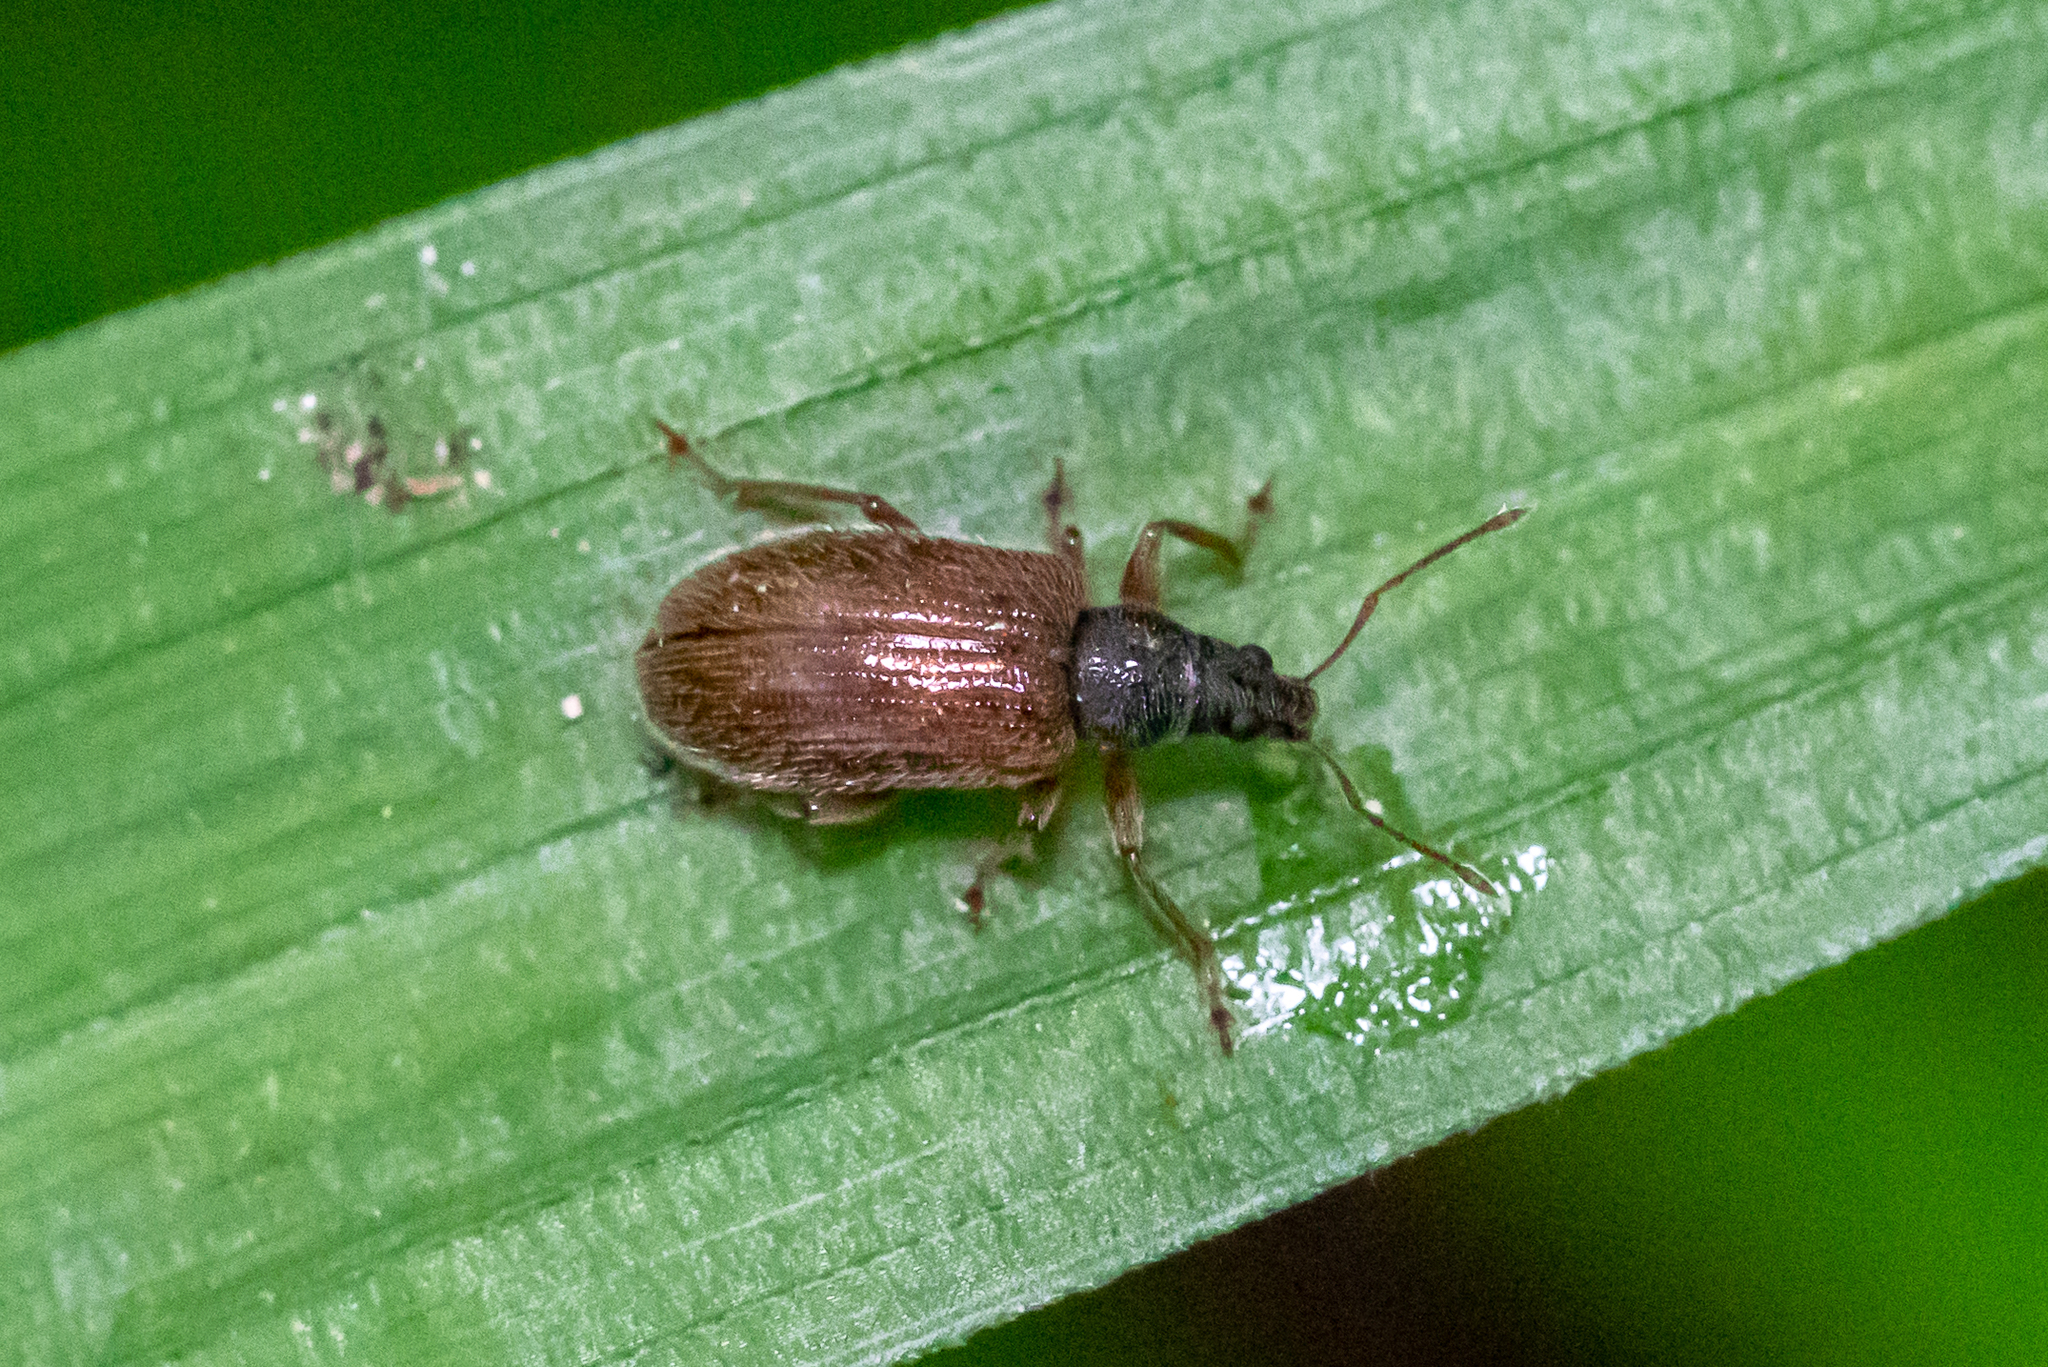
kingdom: Animalia
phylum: Arthropoda
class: Insecta
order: Coleoptera
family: Curculionidae
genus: Phyllobius
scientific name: Phyllobius oblongus
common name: Brown leaf weevil
